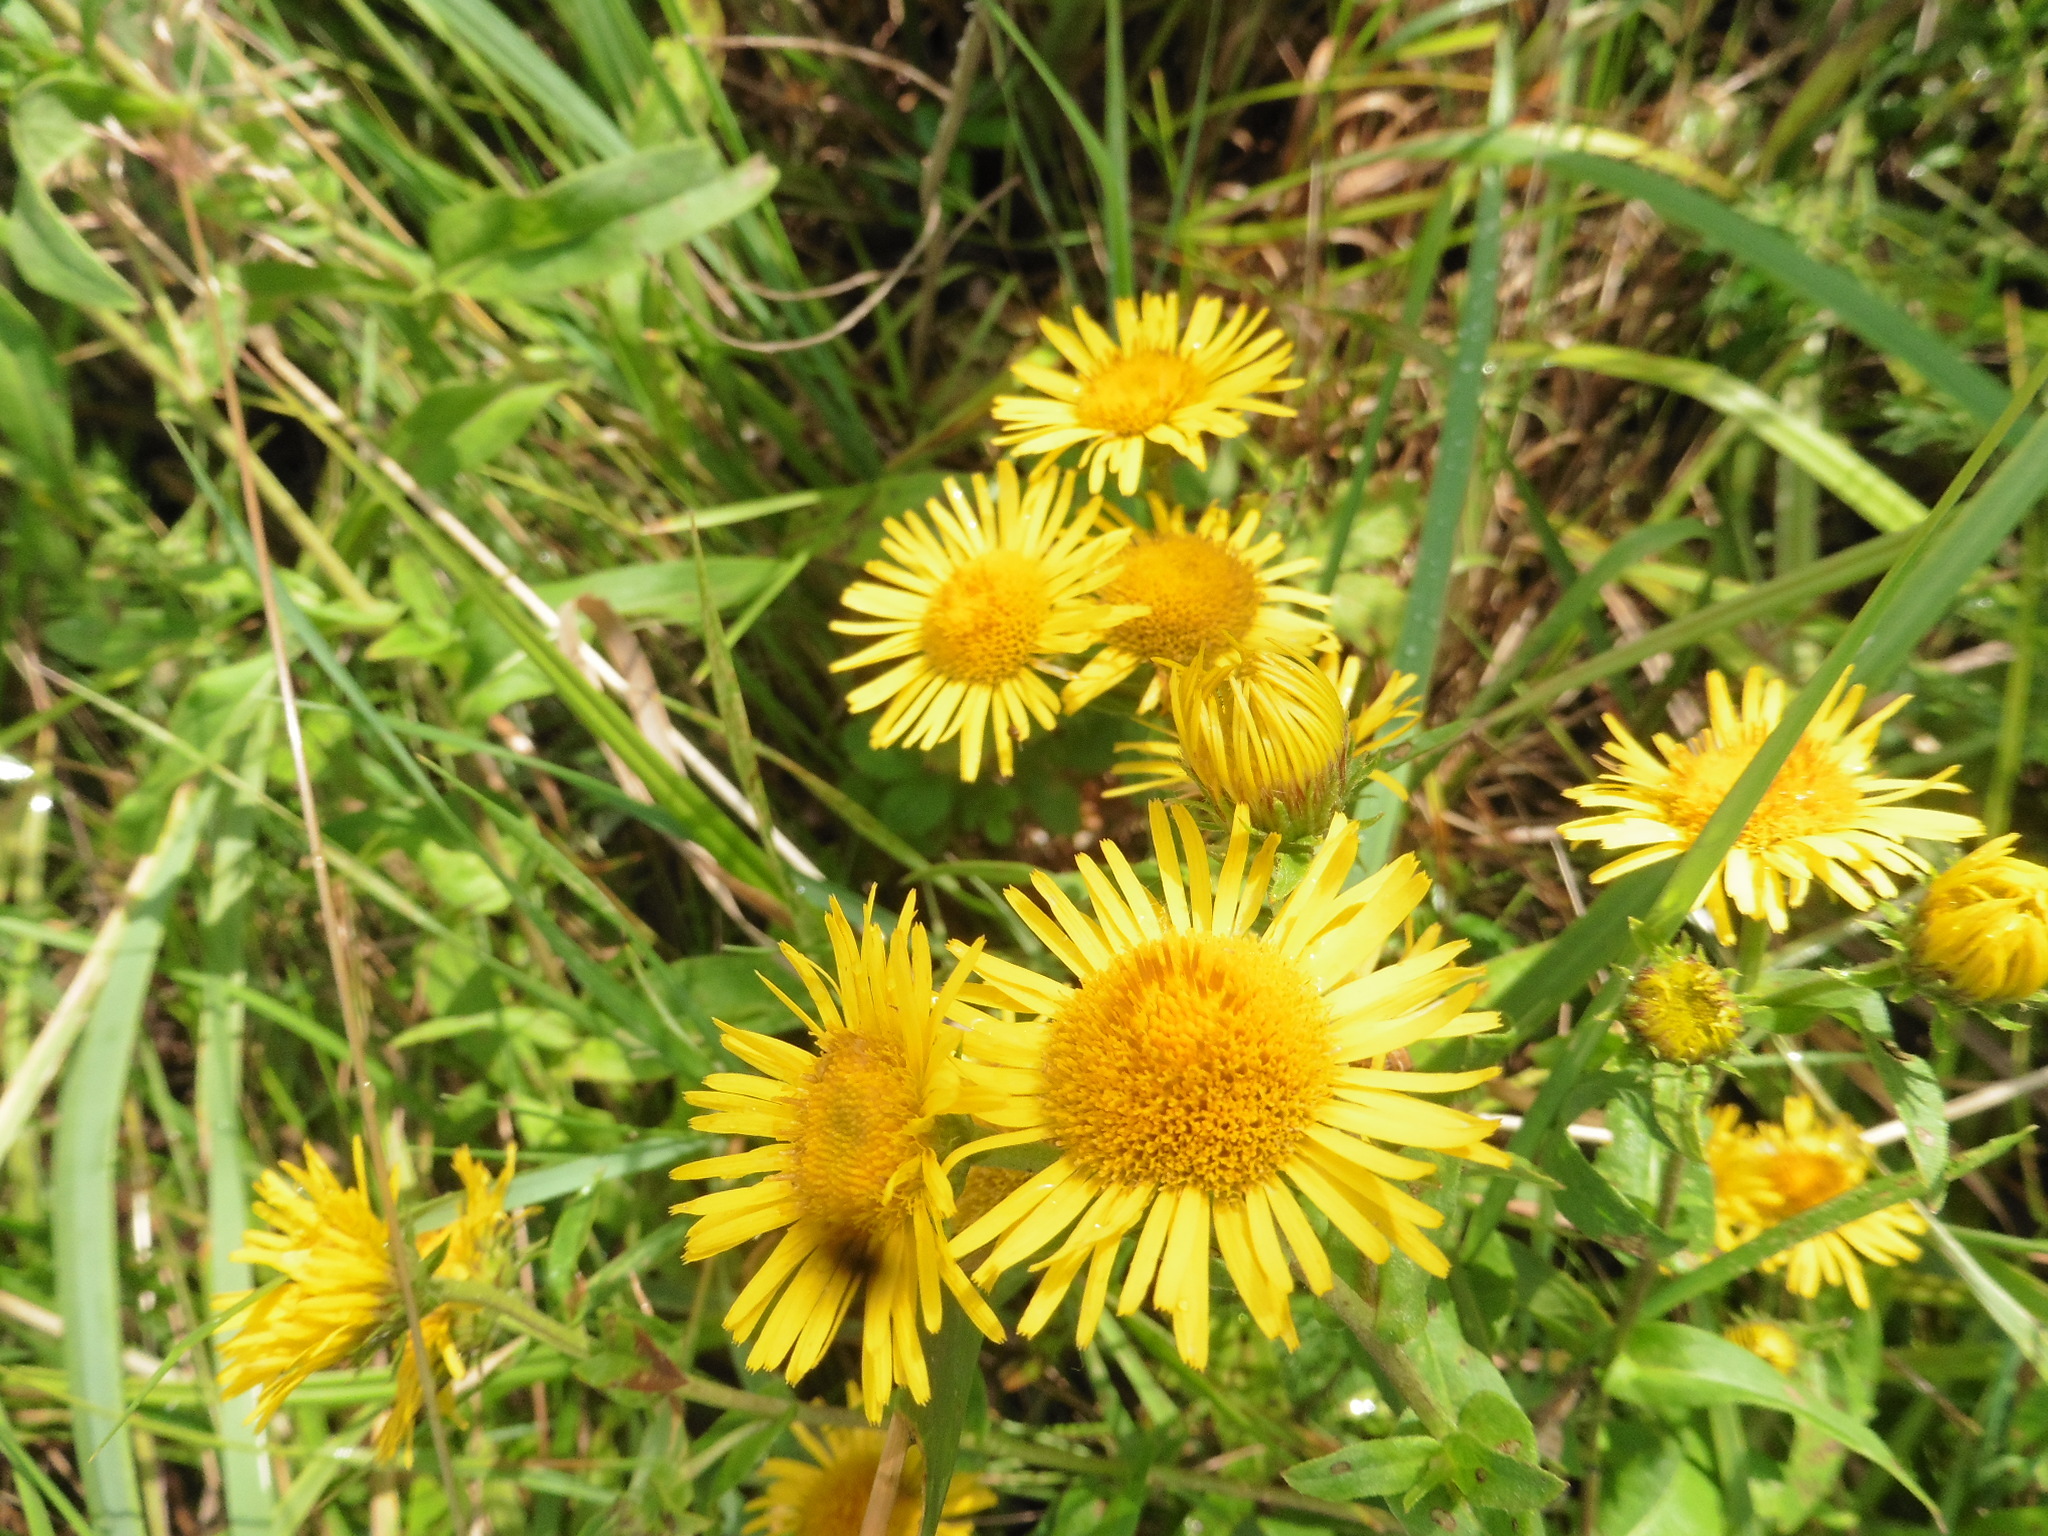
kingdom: Plantae
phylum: Tracheophyta
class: Magnoliopsida
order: Asterales
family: Asteraceae
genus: Pentanema
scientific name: Pentanema britannicum
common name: British elecampane
